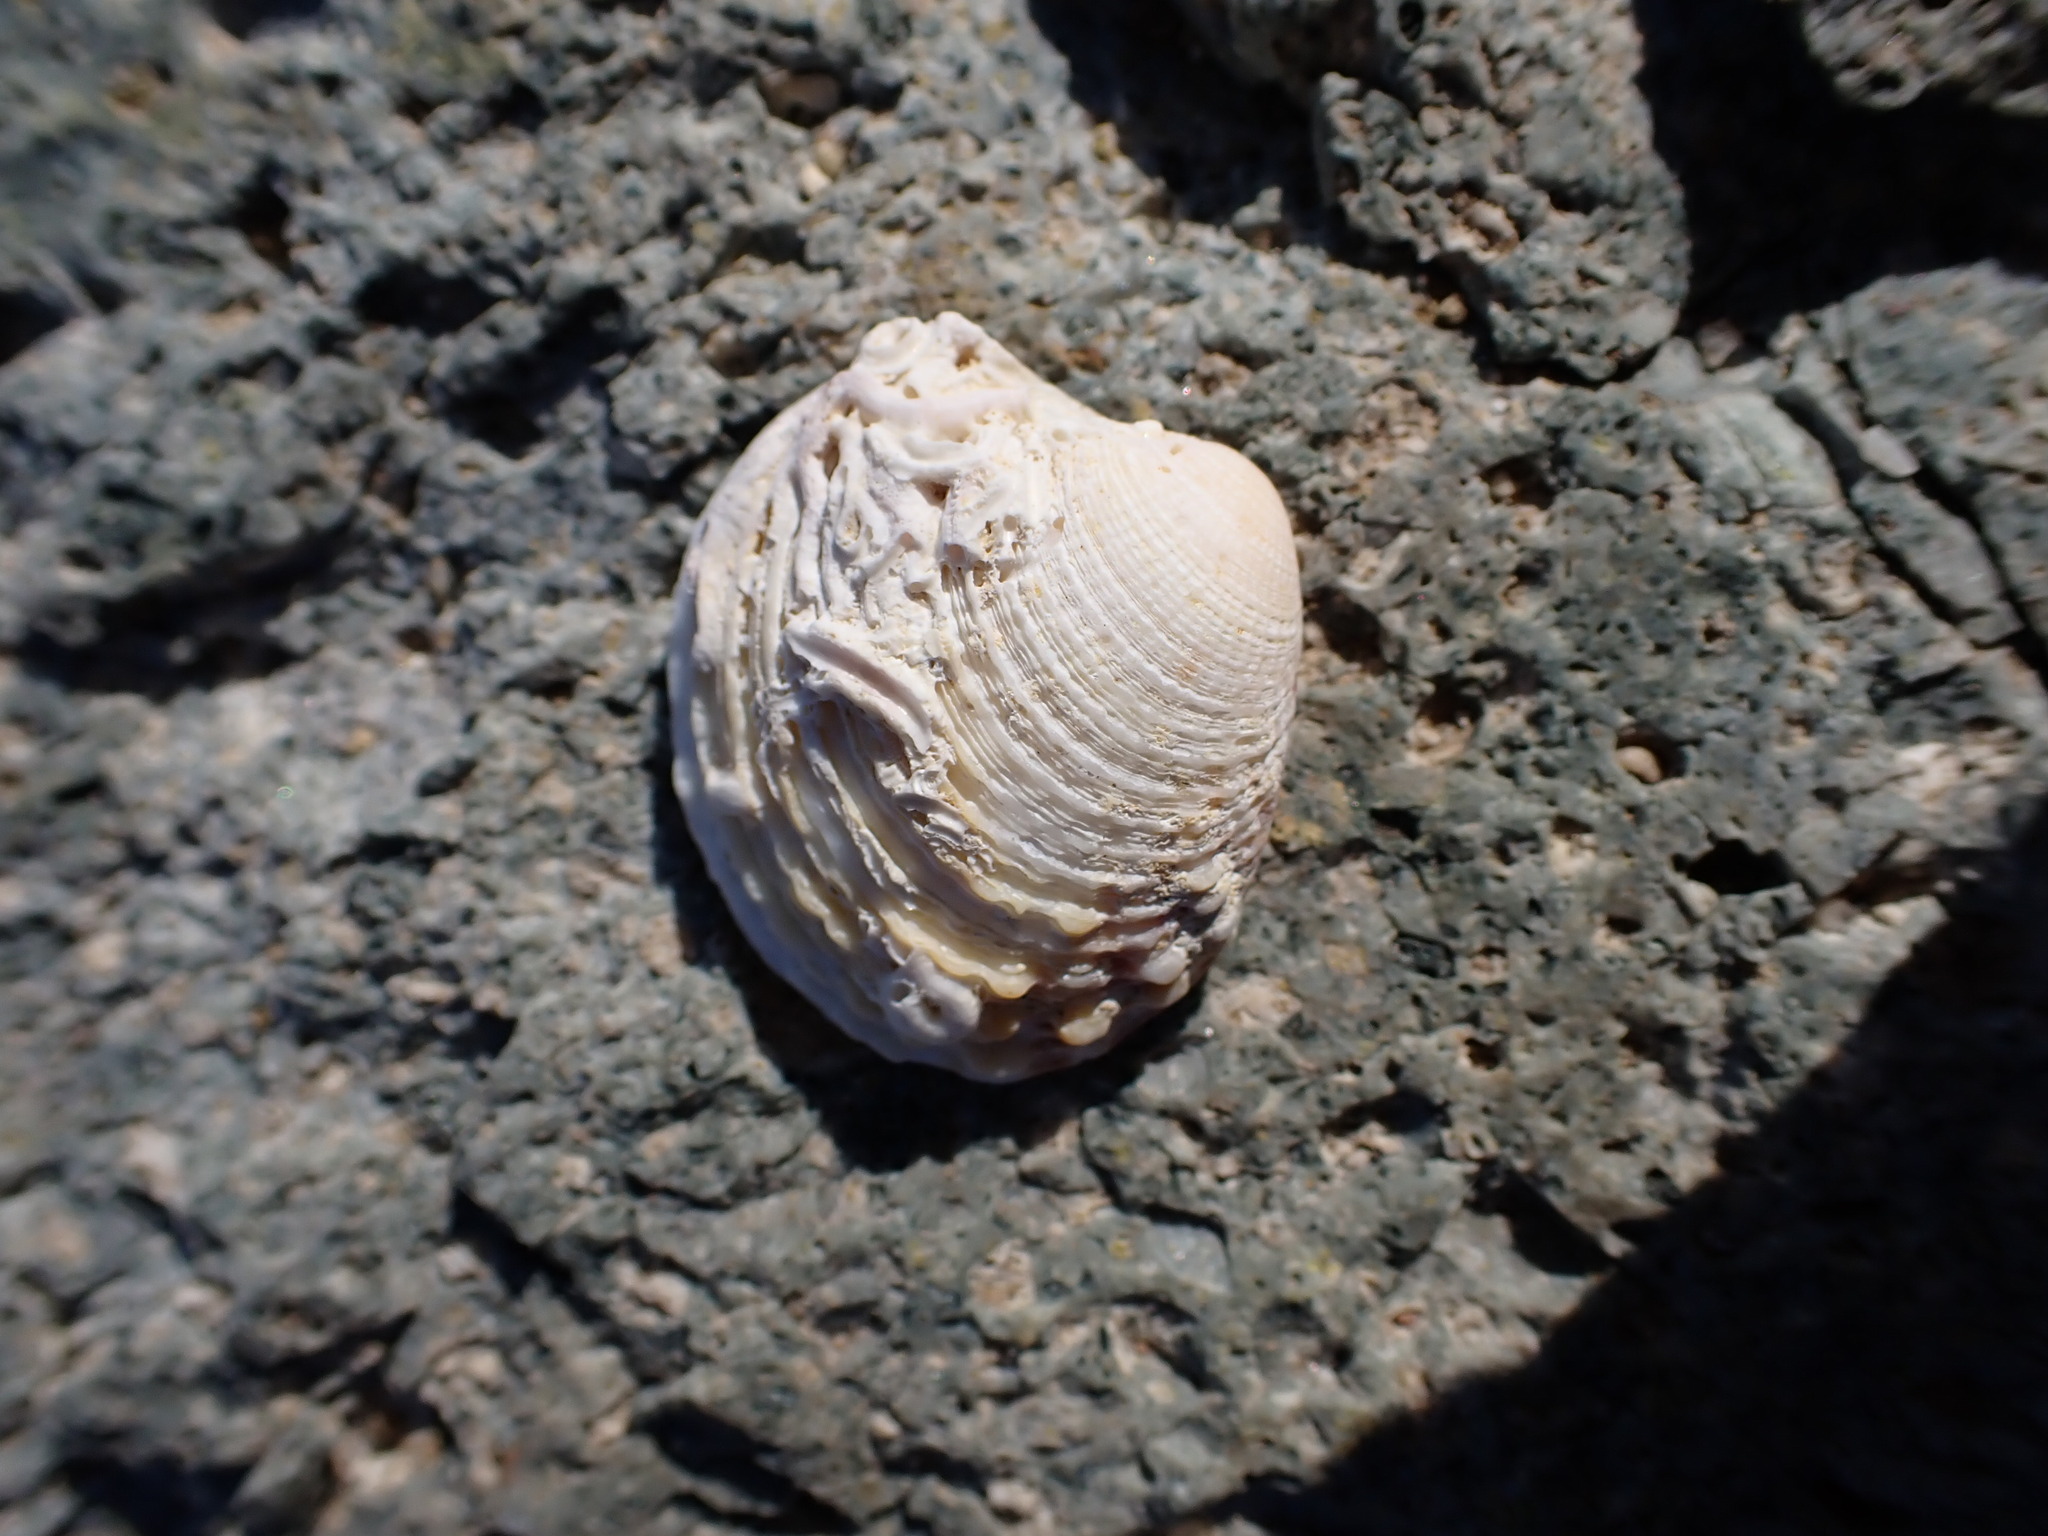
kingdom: Animalia
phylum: Mollusca
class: Bivalvia
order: Venerida
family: Veneridae
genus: Venus
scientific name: Venus verrucosa
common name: Warty venus
